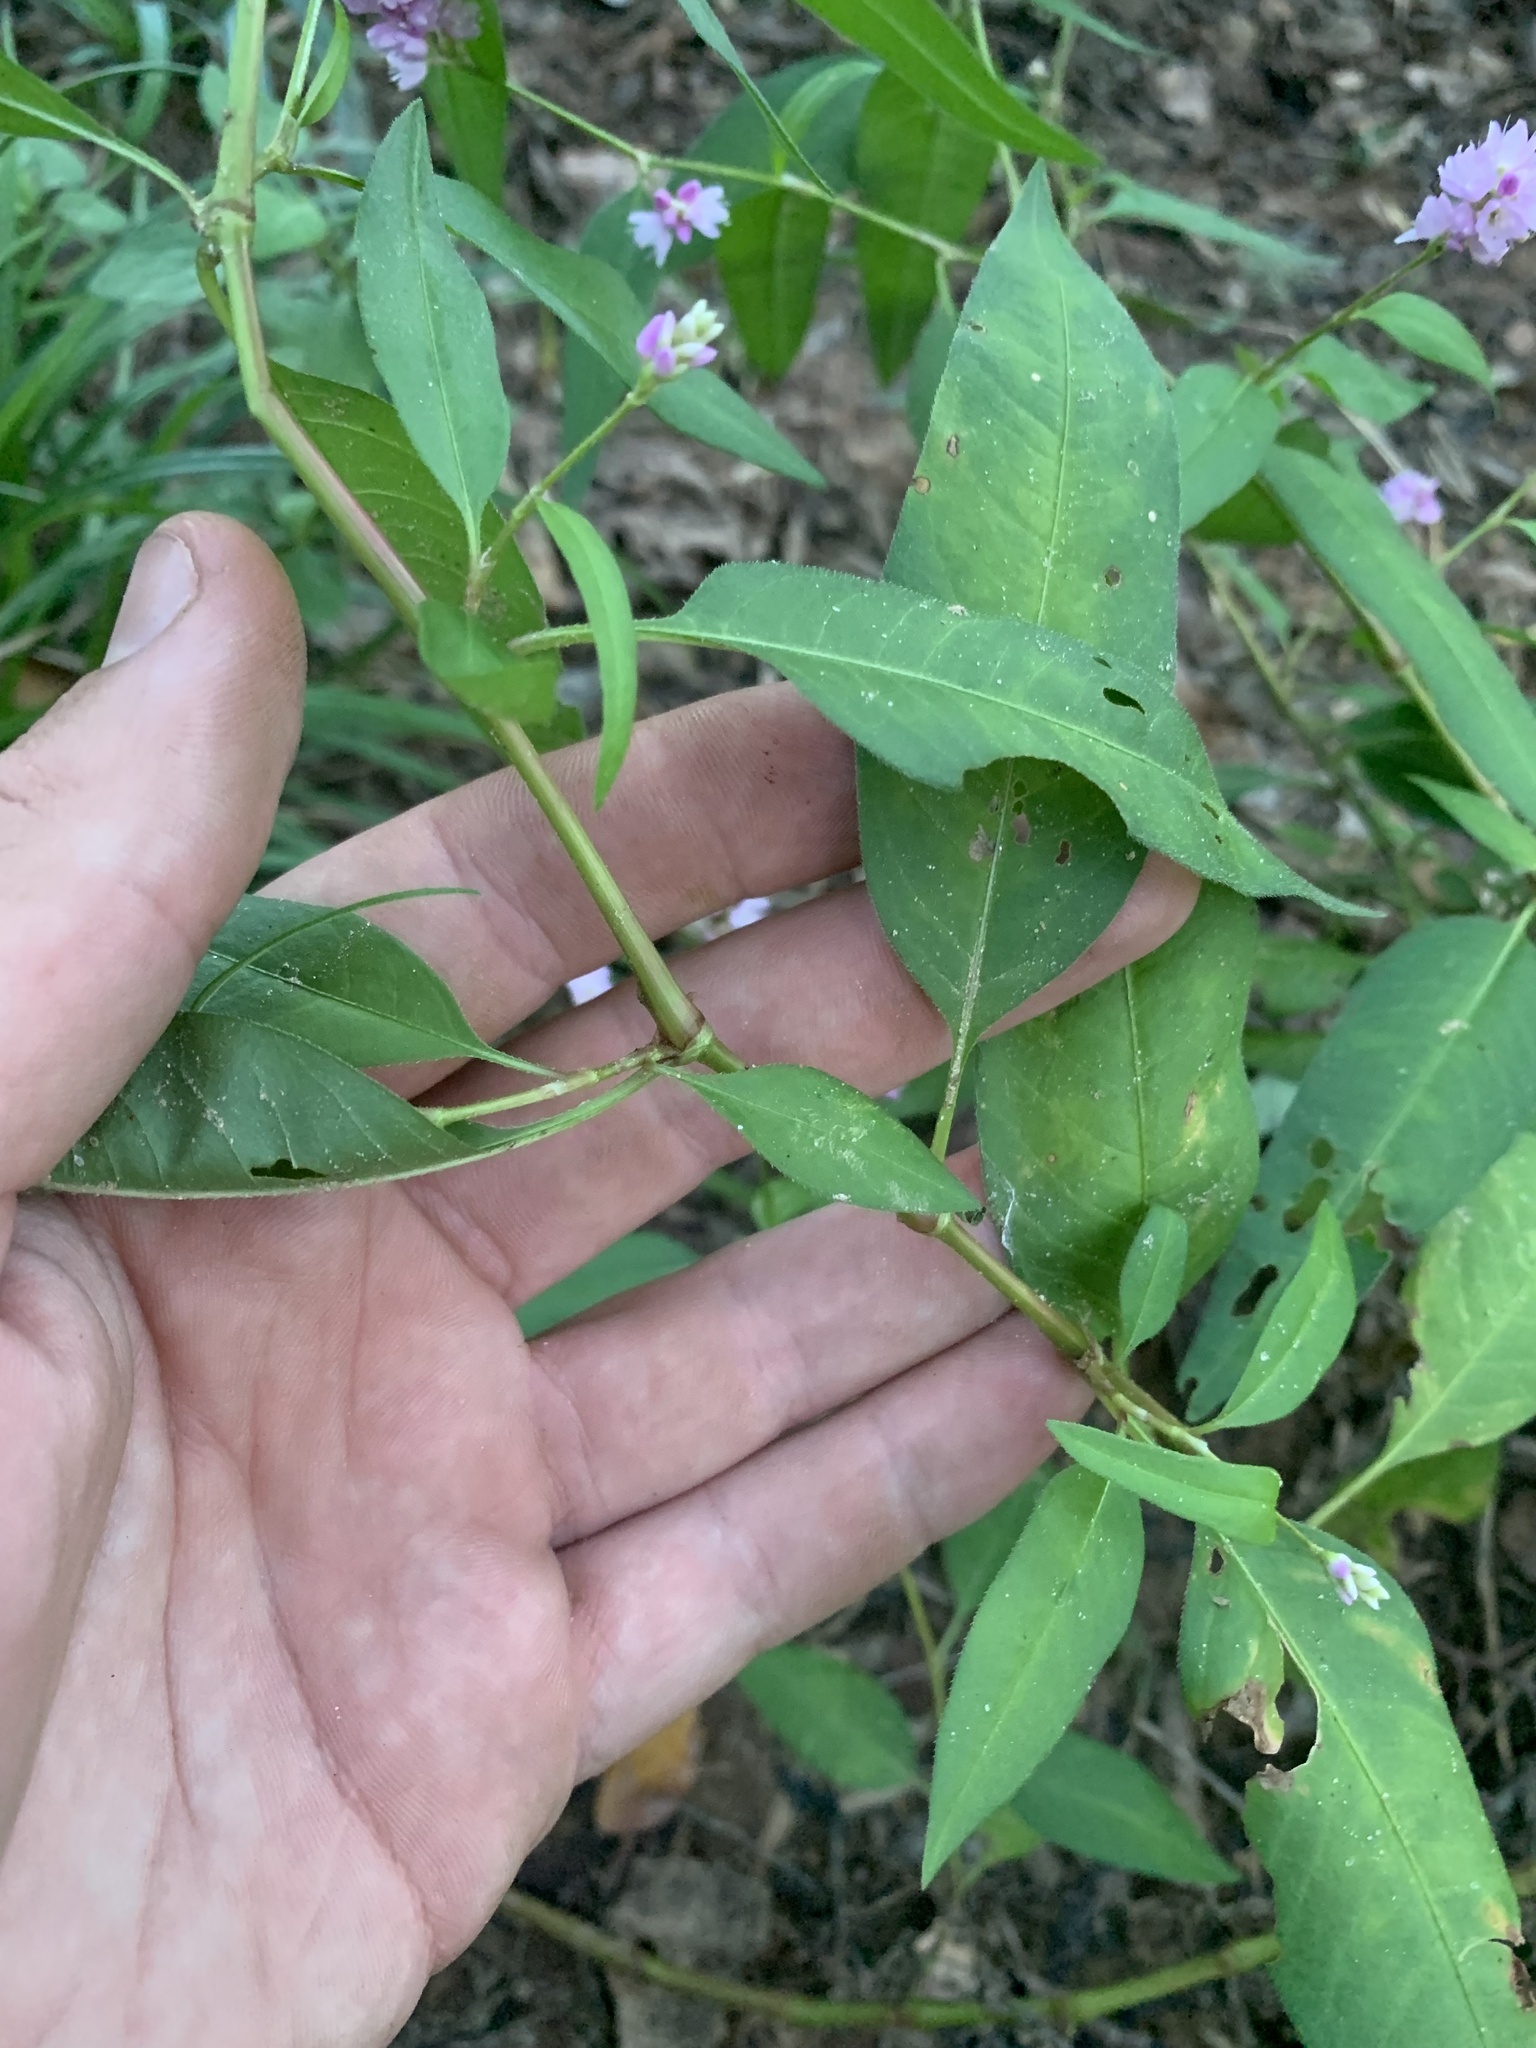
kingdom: Plantae
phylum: Tracheophyta
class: Magnoliopsida
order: Caryophyllales
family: Polygonaceae
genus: Persicaria
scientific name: Persicaria bicornis
